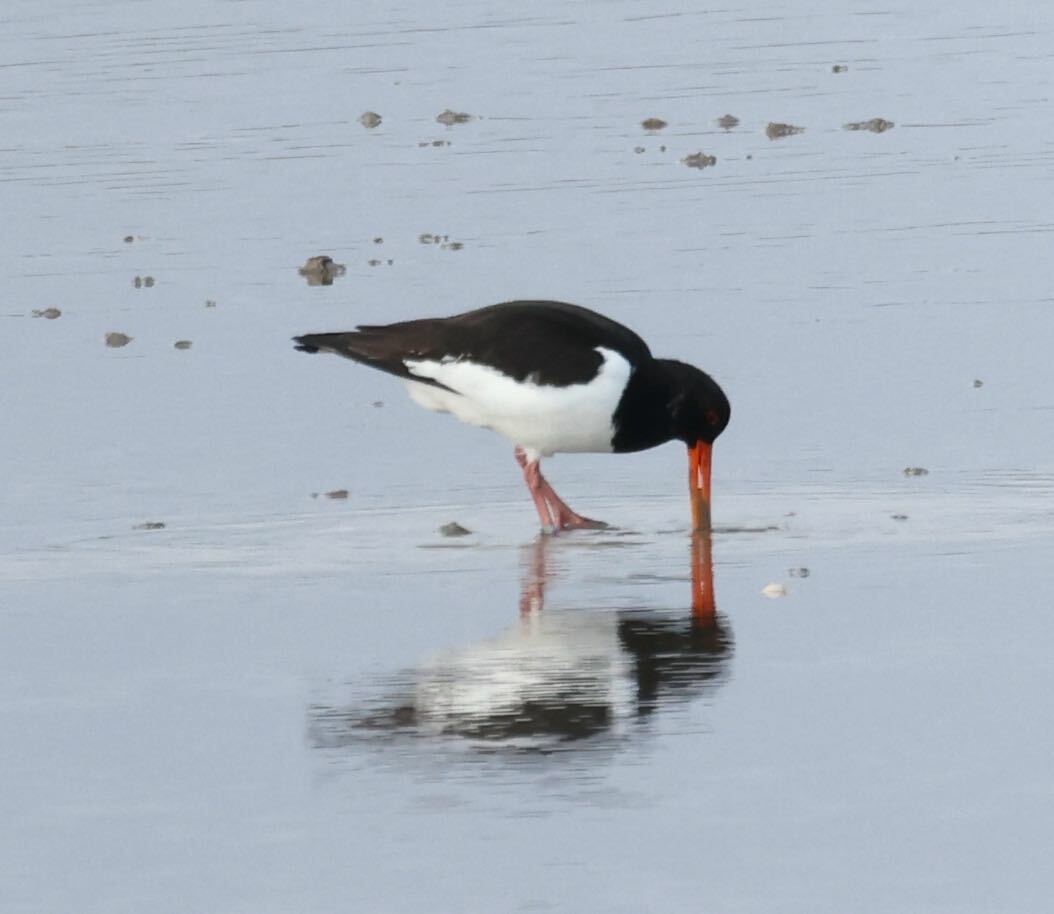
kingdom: Animalia
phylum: Chordata
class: Aves
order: Charadriiformes
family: Haematopodidae
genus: Haematopus
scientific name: Haematopus ostralegus
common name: Eurasian oystercatcher
